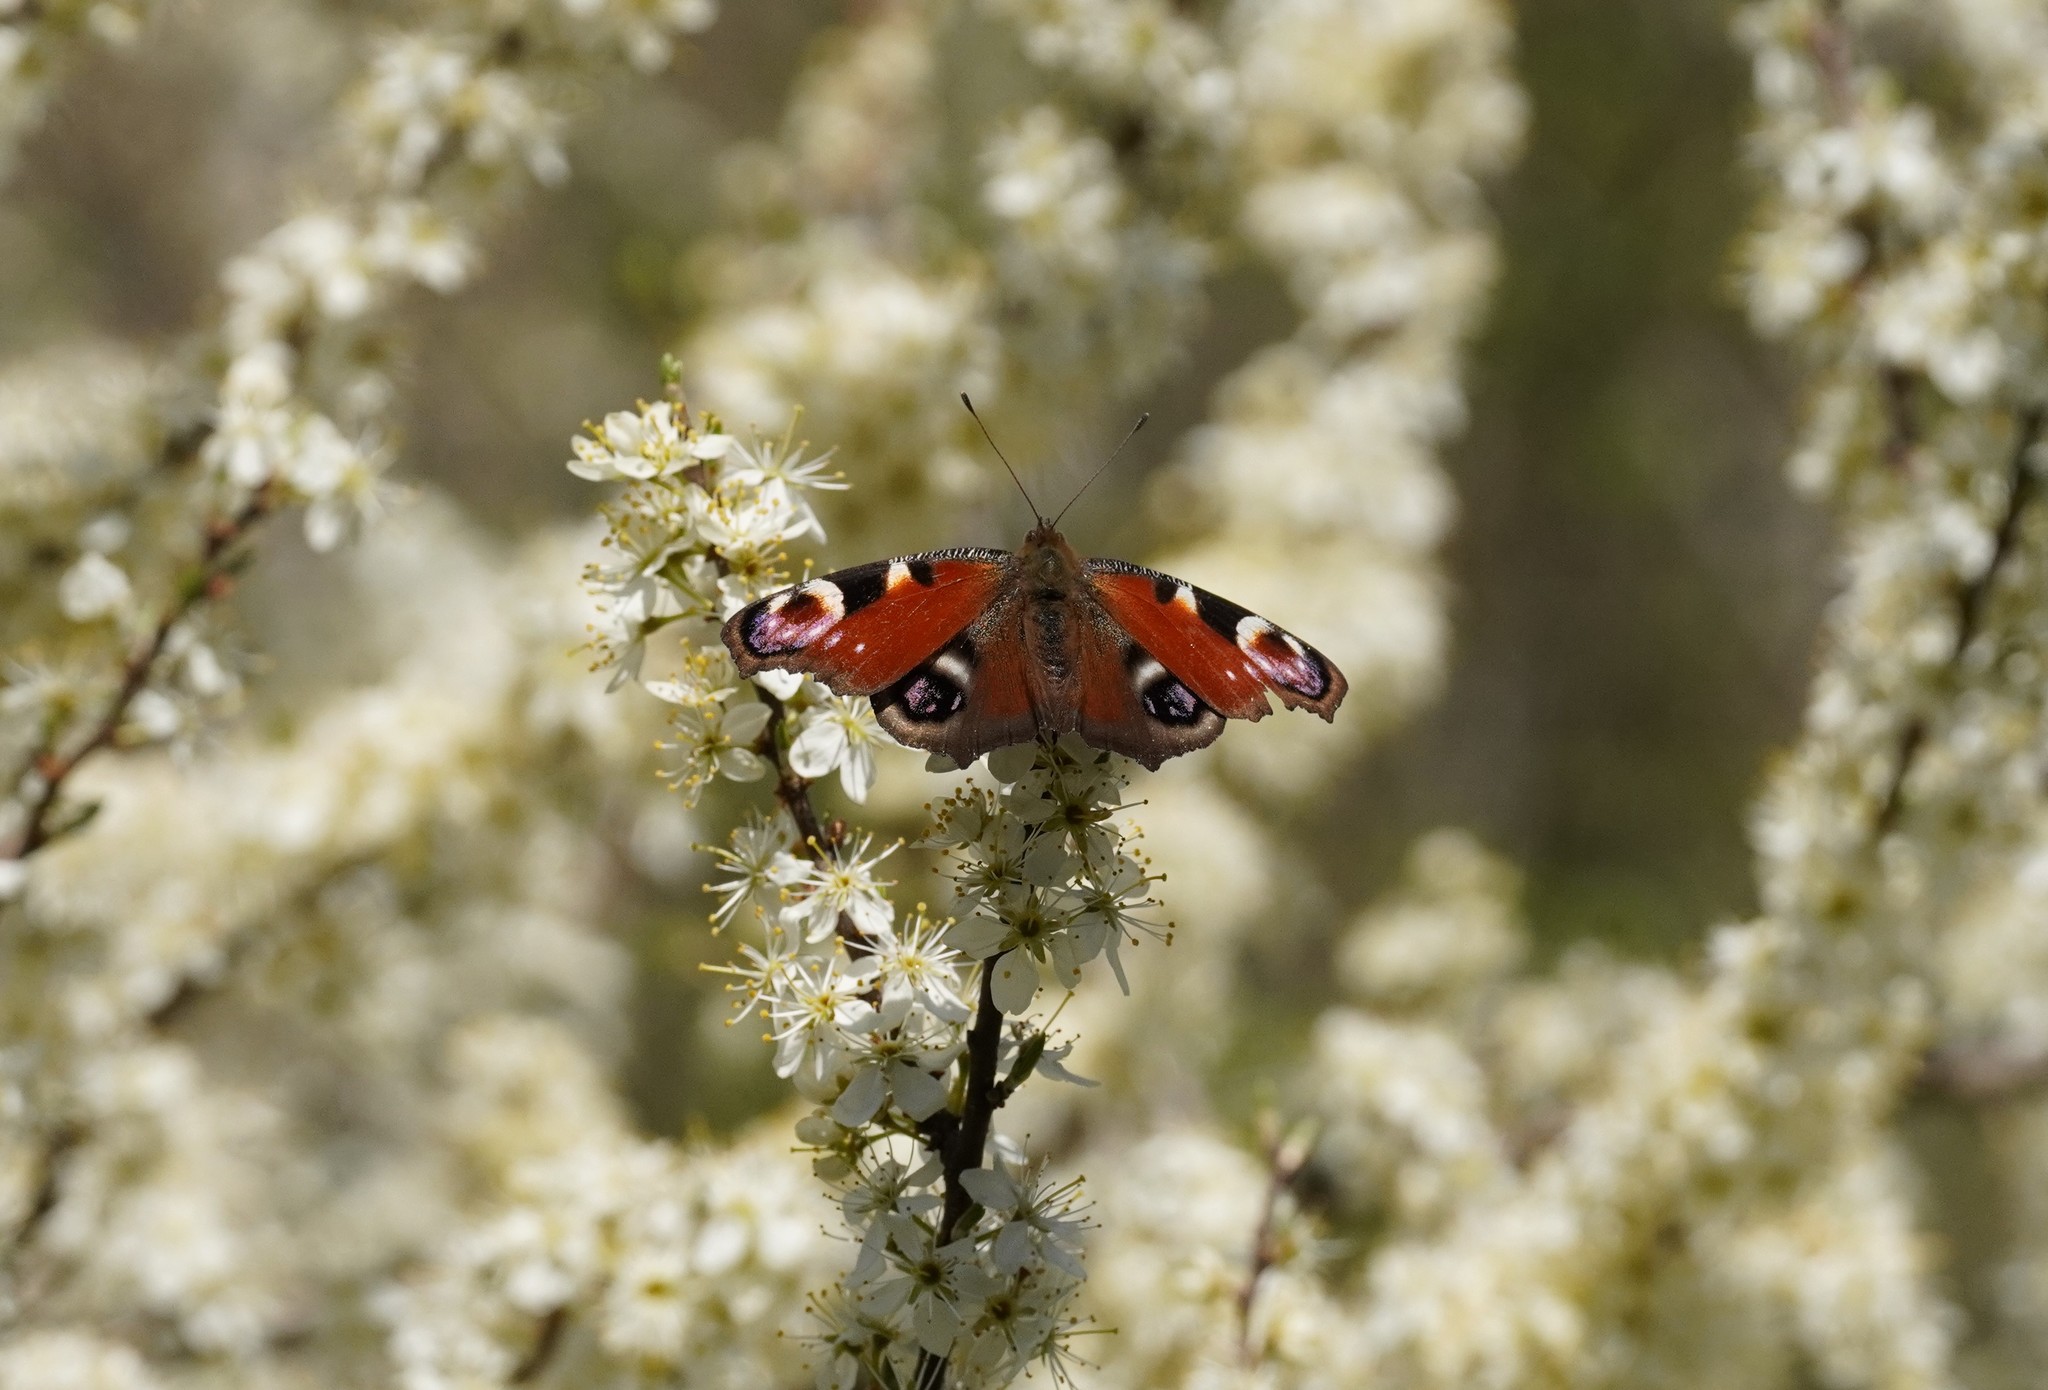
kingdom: Animalia
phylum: Arthropoda
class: Insecta
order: Lepidoptera
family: Nymphalidae
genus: Aglais
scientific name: Aglais io
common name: Peacock
